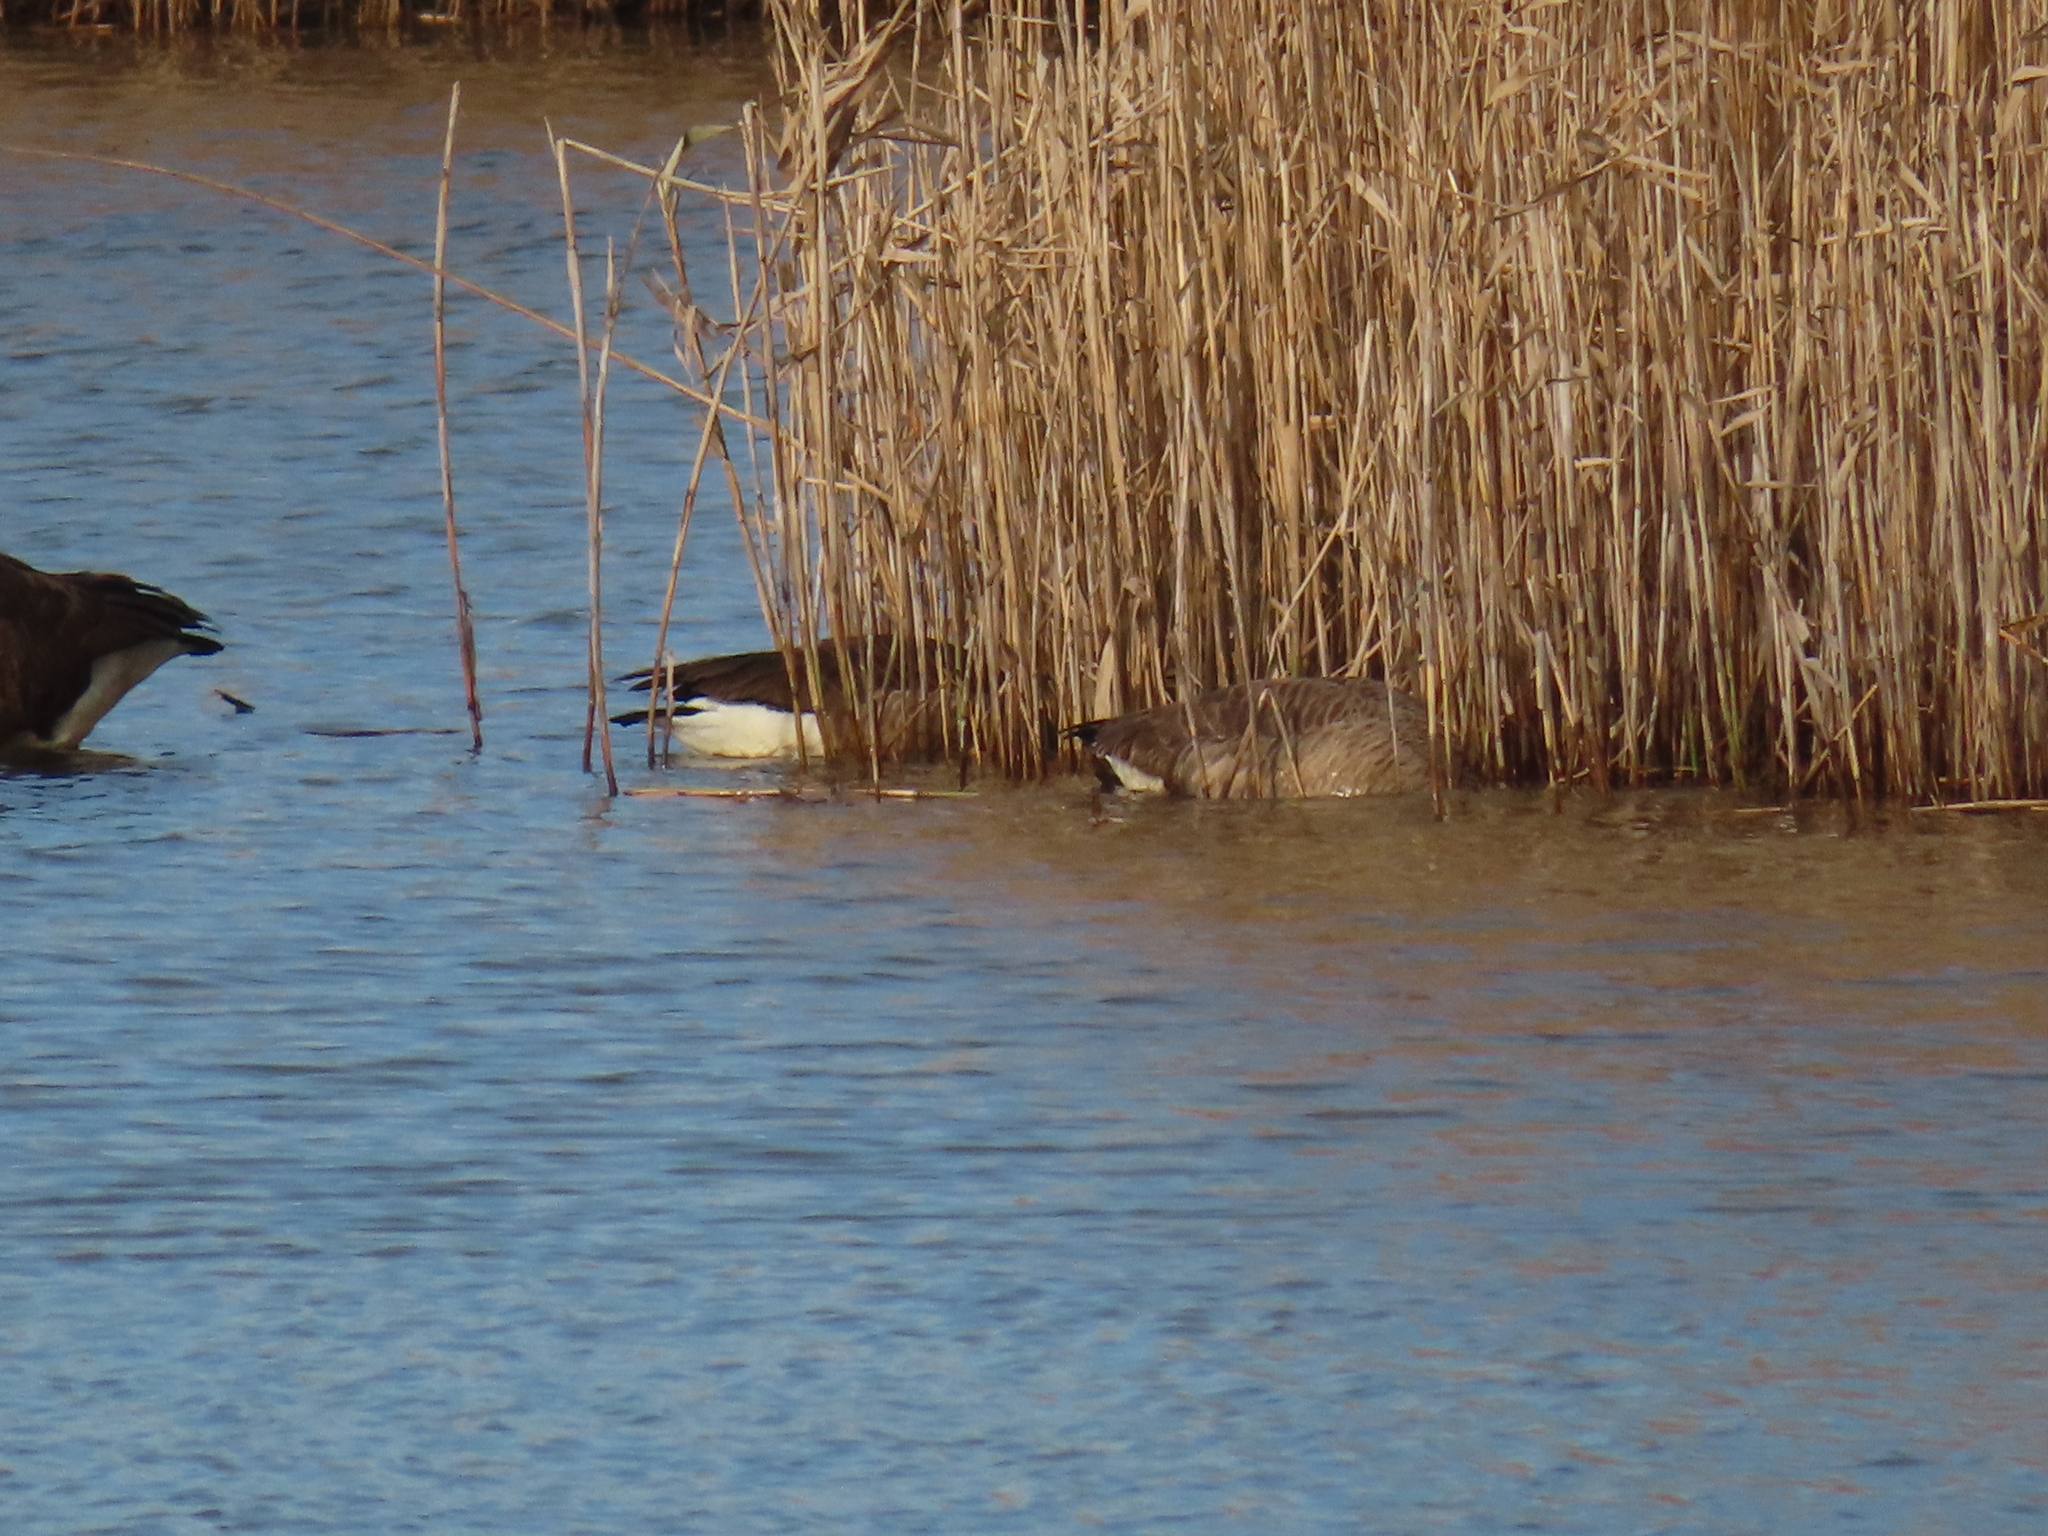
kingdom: Animalia
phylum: Chordata
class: Aves
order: Anseriformes
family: Anatidae
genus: Branta
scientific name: Branta canadensis
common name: Canada goose
